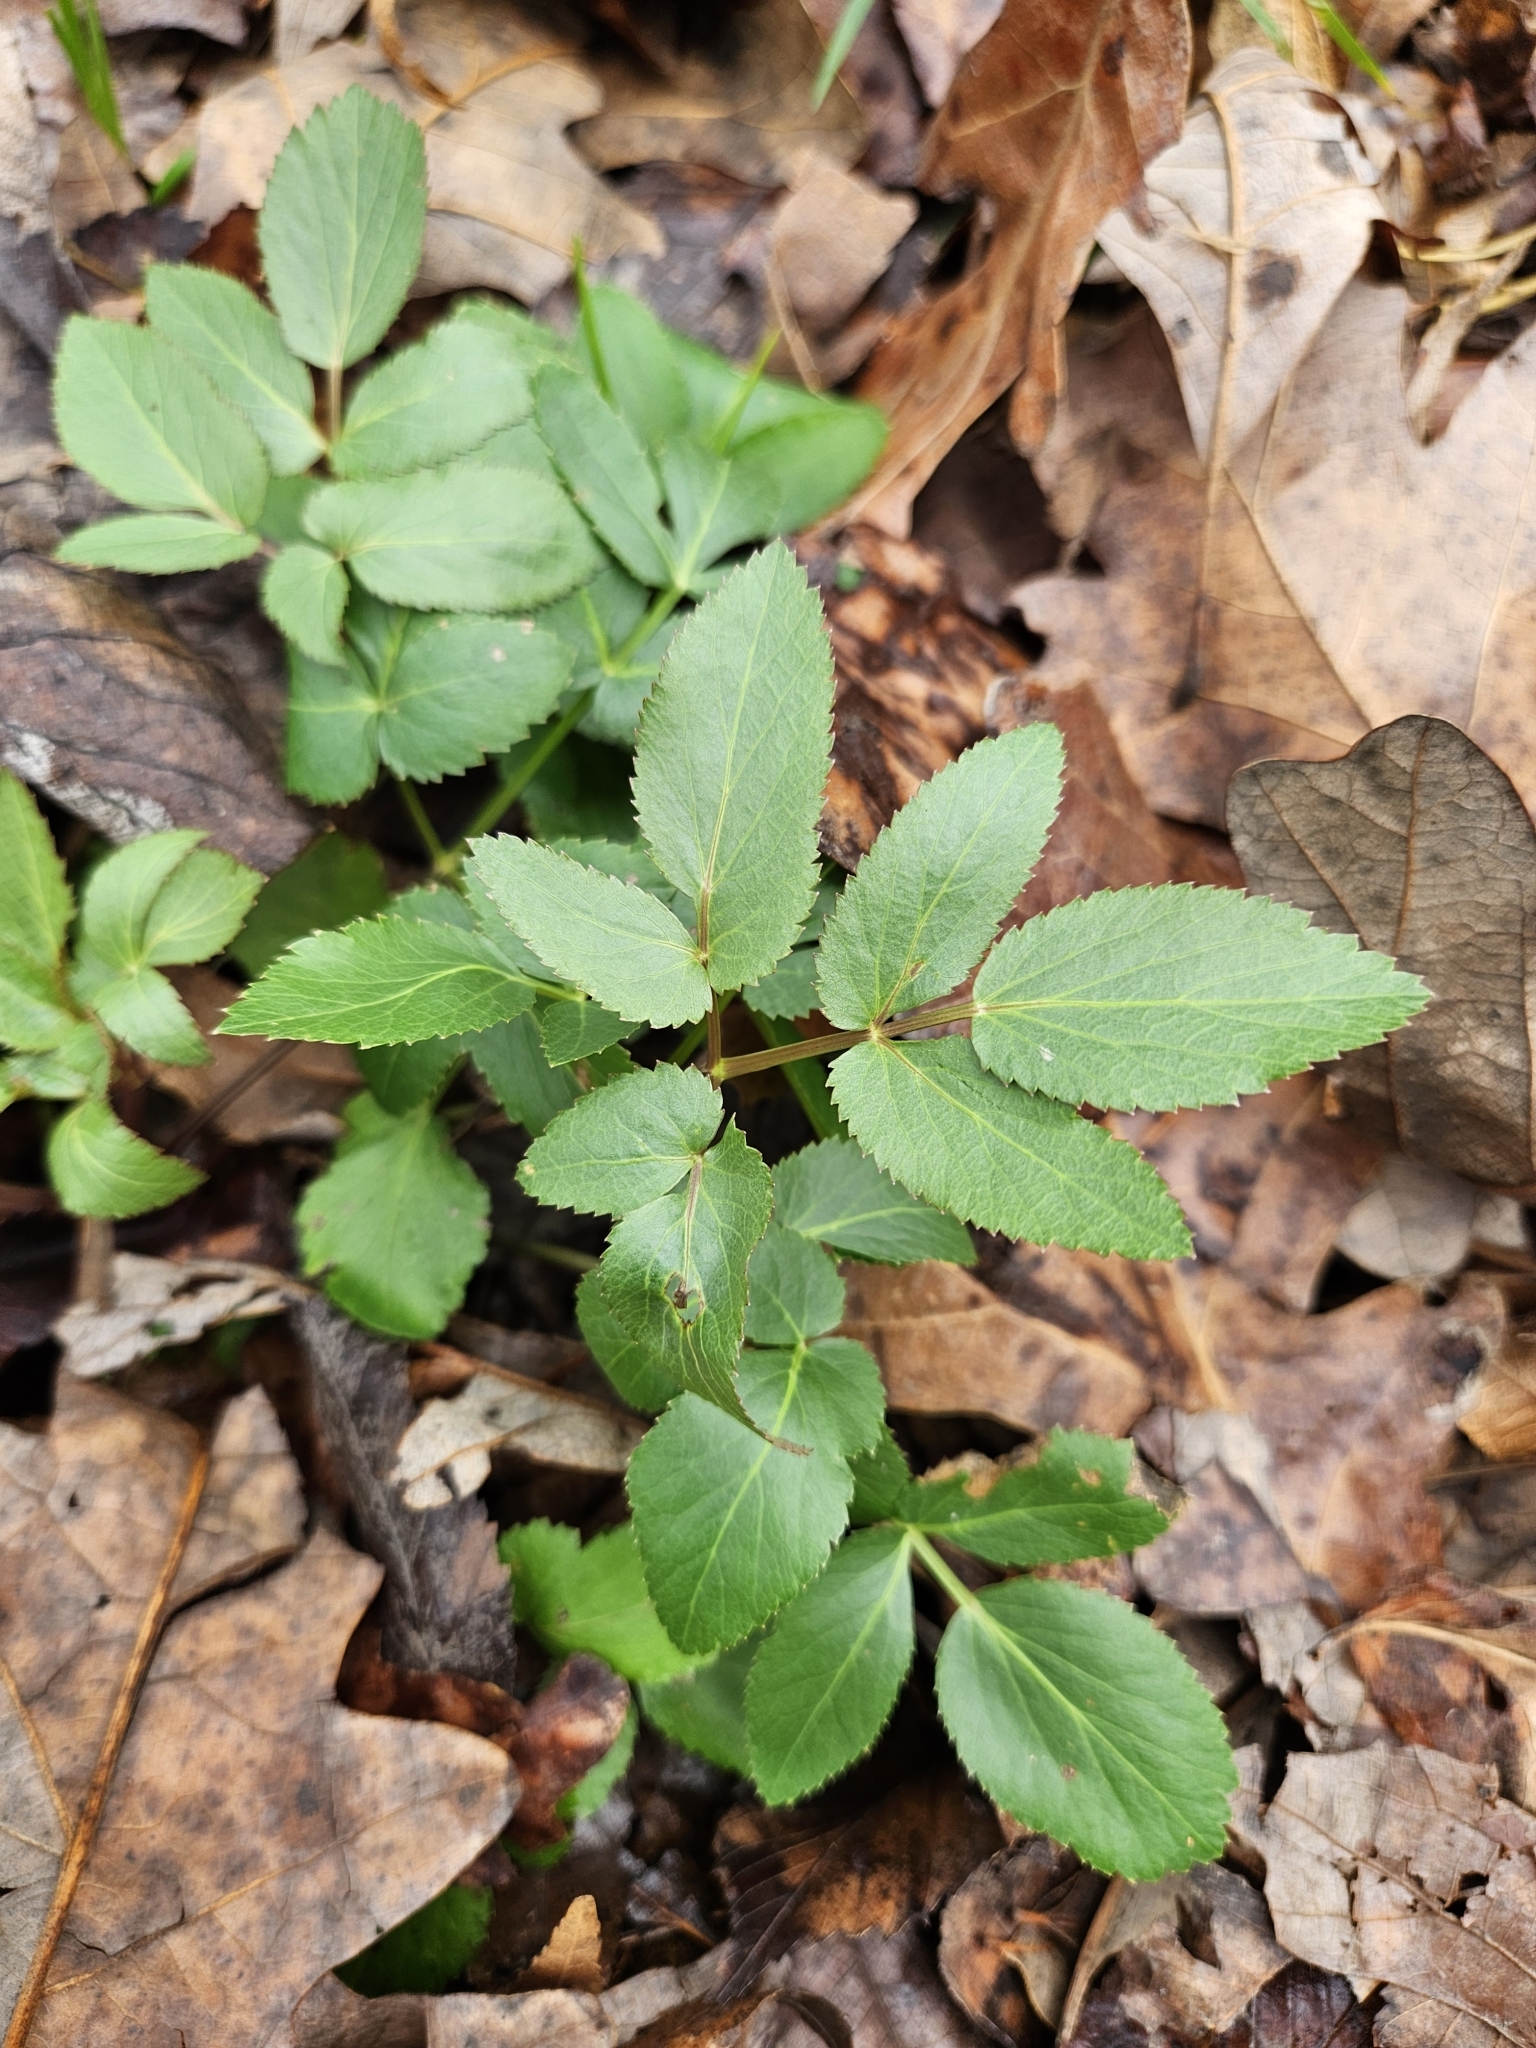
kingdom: Plantae
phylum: Tracheophyta
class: Magnoliopsida
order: Apiales
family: Apiaceae
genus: Zizia
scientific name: Zizia aurea
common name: Golden alexanders
